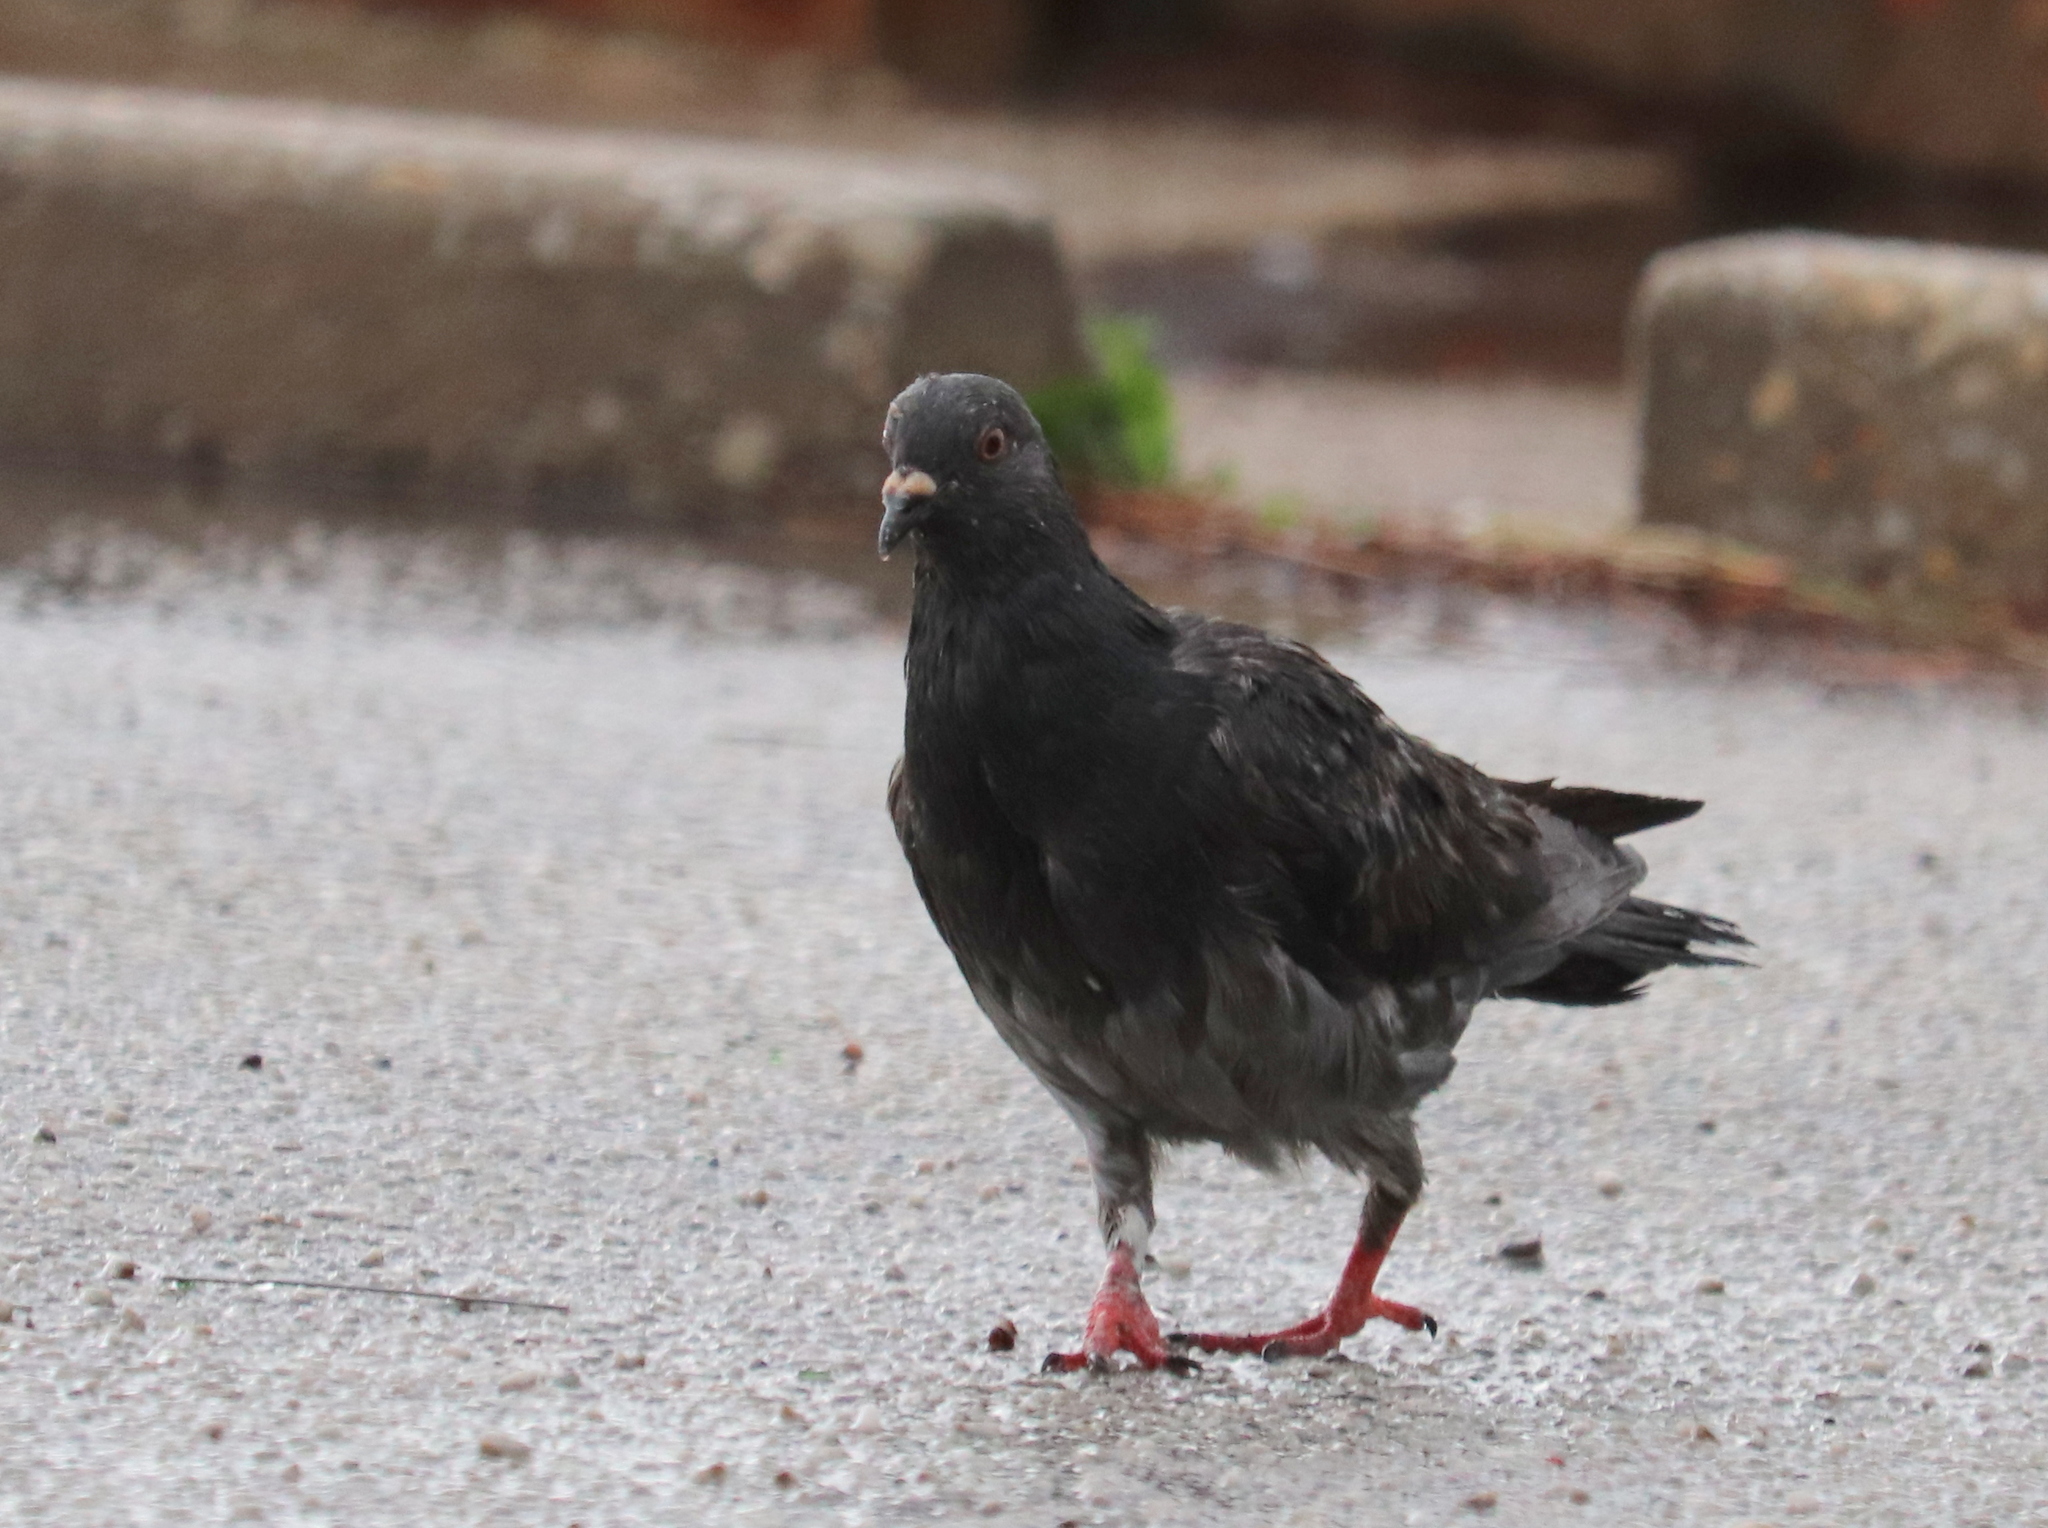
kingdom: Animalia
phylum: Chordata
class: Aves
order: Columbiformes
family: Columbidae
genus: Columba
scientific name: Columba livia
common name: Rock pigeon
